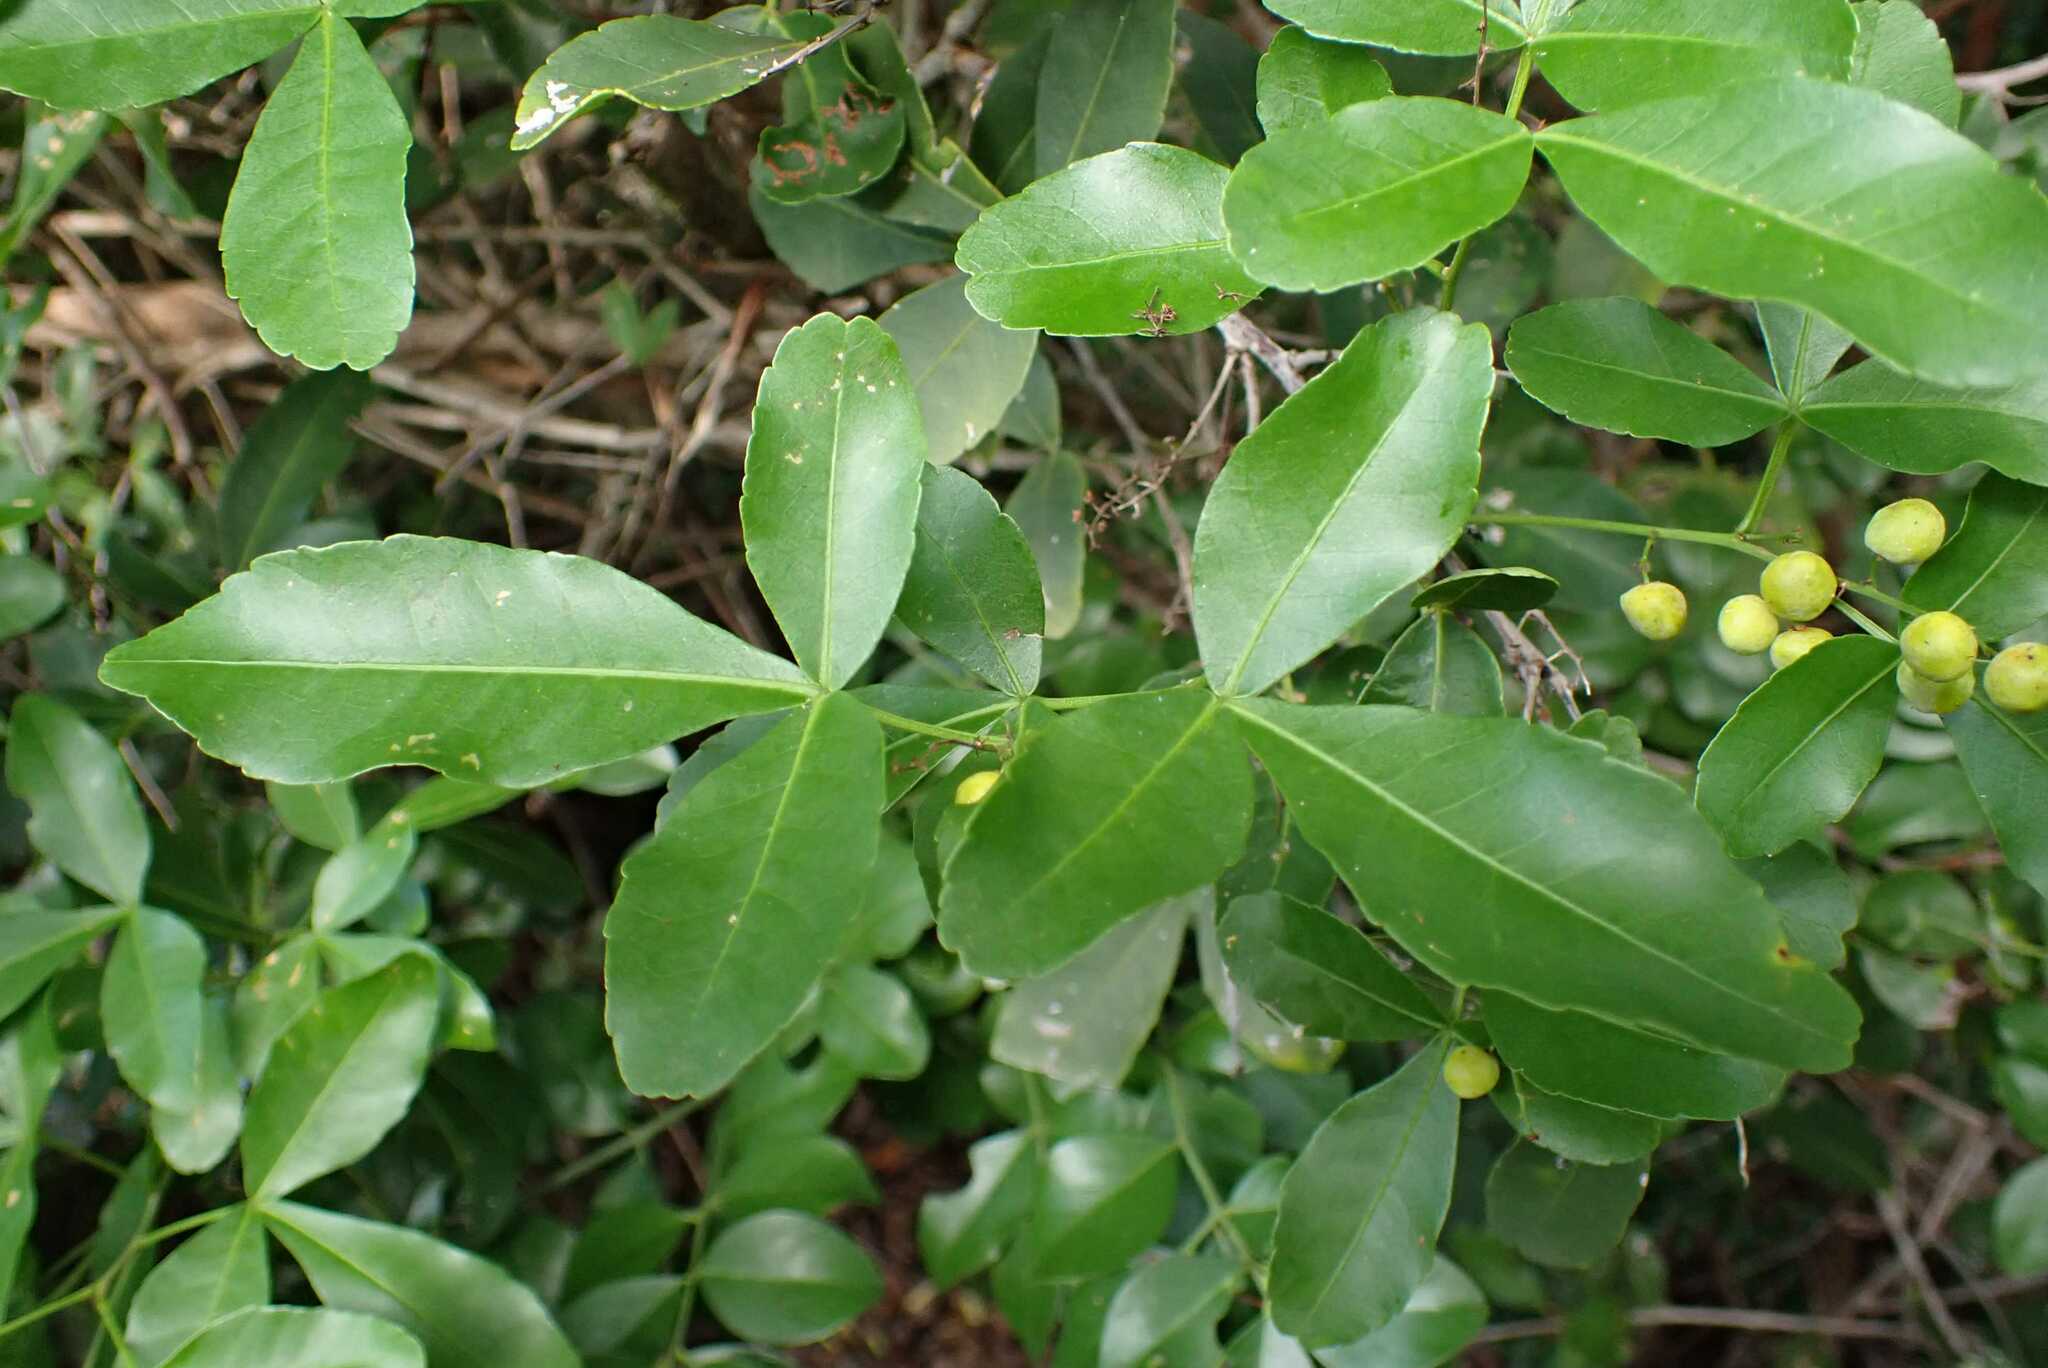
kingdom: Plantae
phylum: Tracheophyta
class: Magnoliopsida
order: Sapindales
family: Anacardiaceae
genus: Searsia
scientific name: Searsia natalensis
